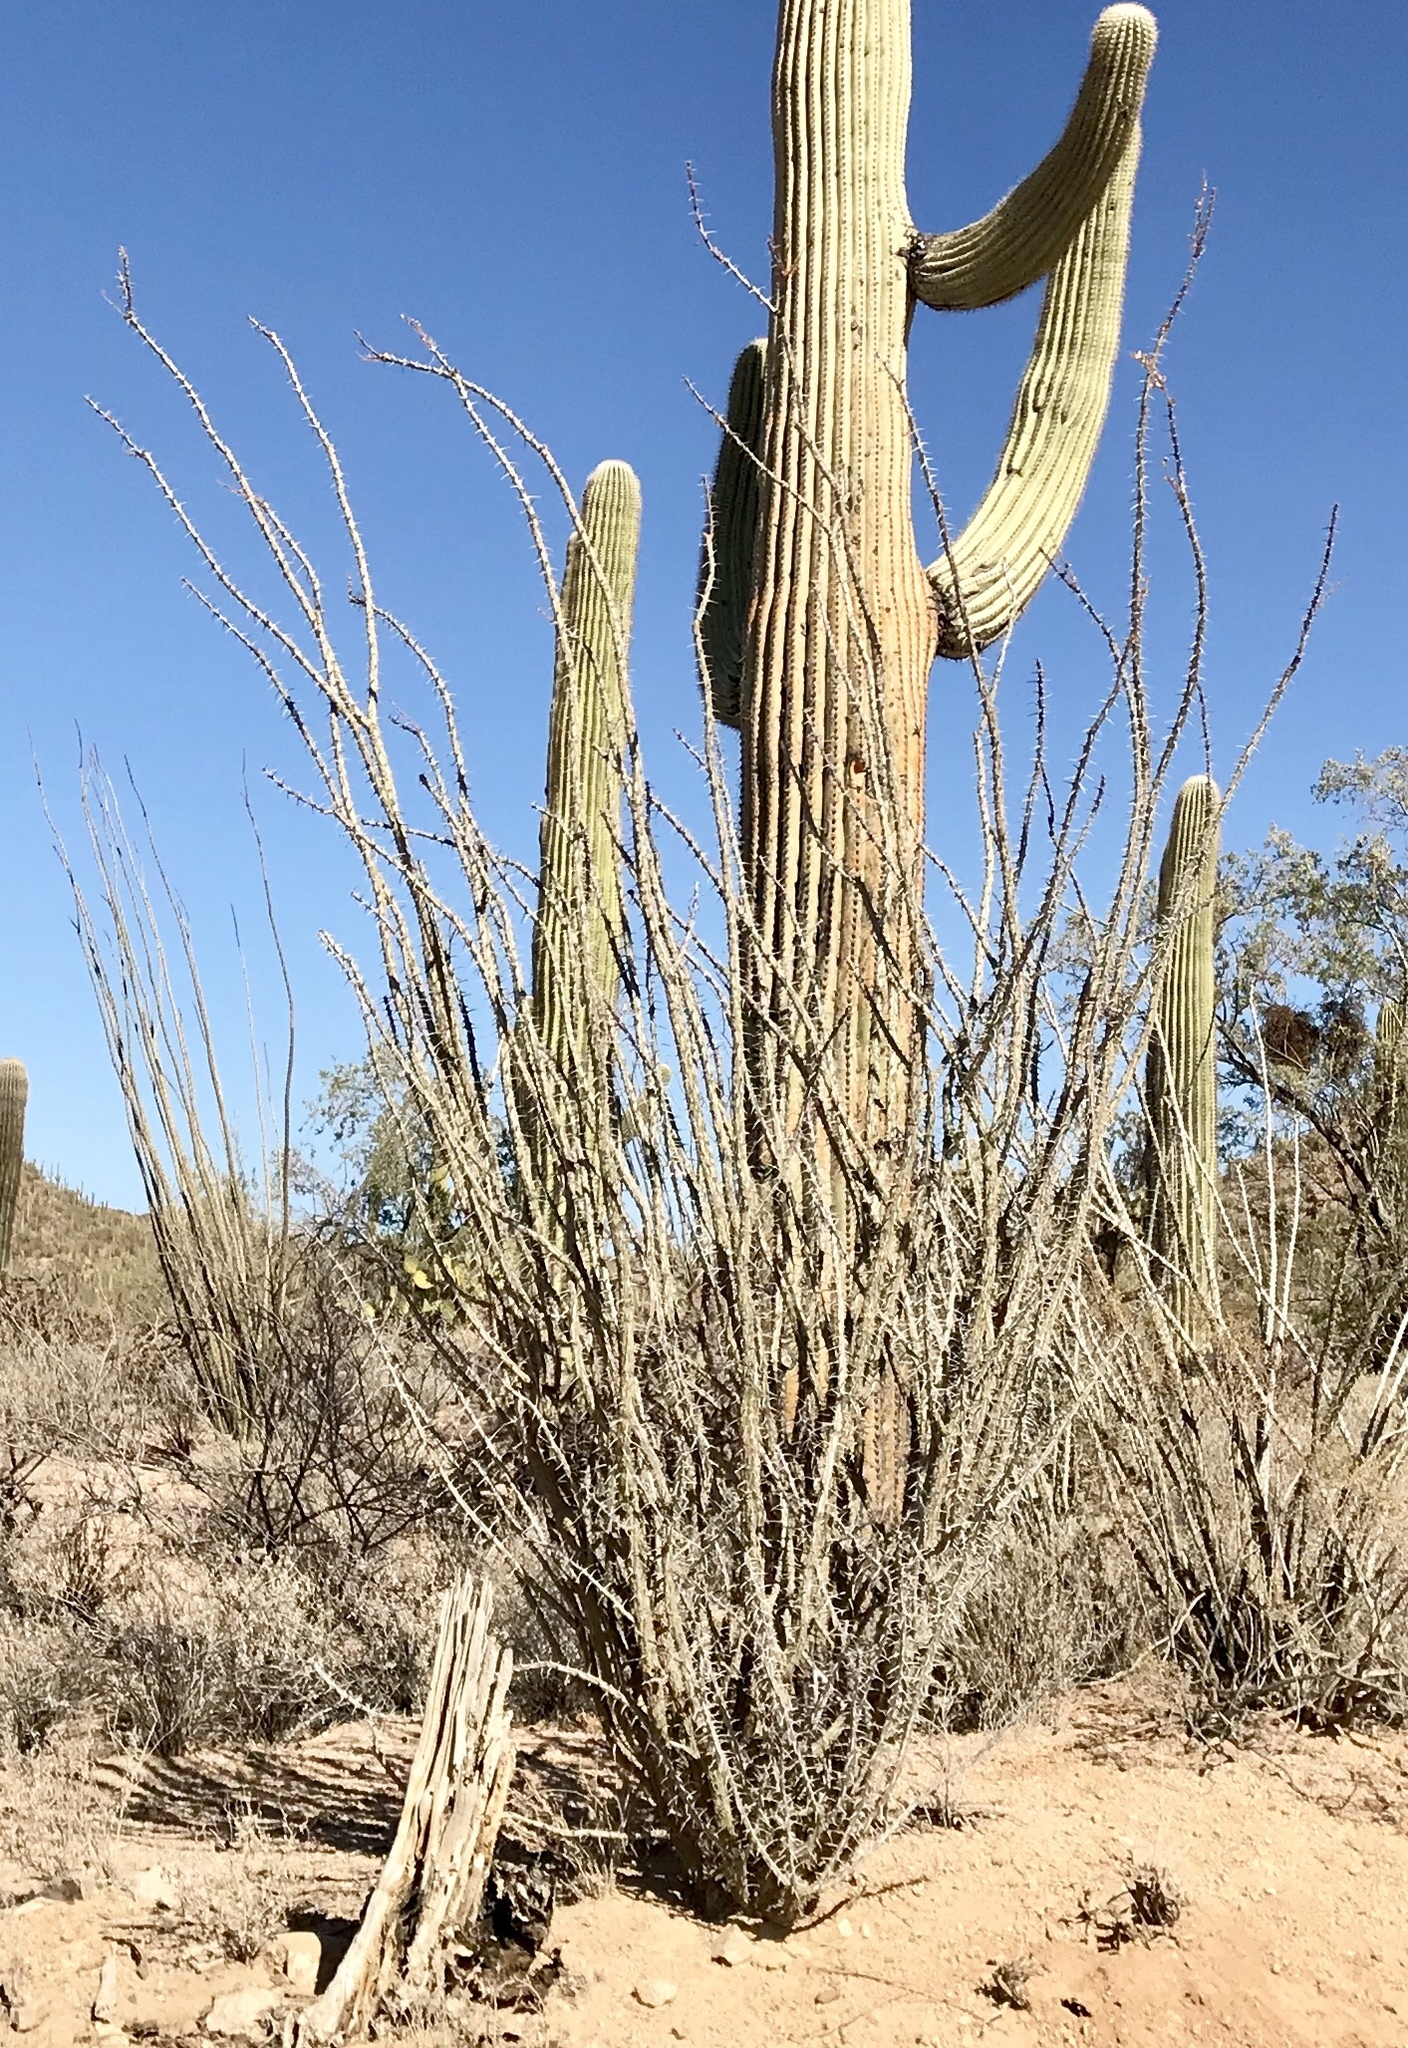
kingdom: Plantae
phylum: Tracheophyta
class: Magnoliopsida
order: Ericales
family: Fouquieriaceae
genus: Fouquieria
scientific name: Fouquieria splendens
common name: Vine-cactus
